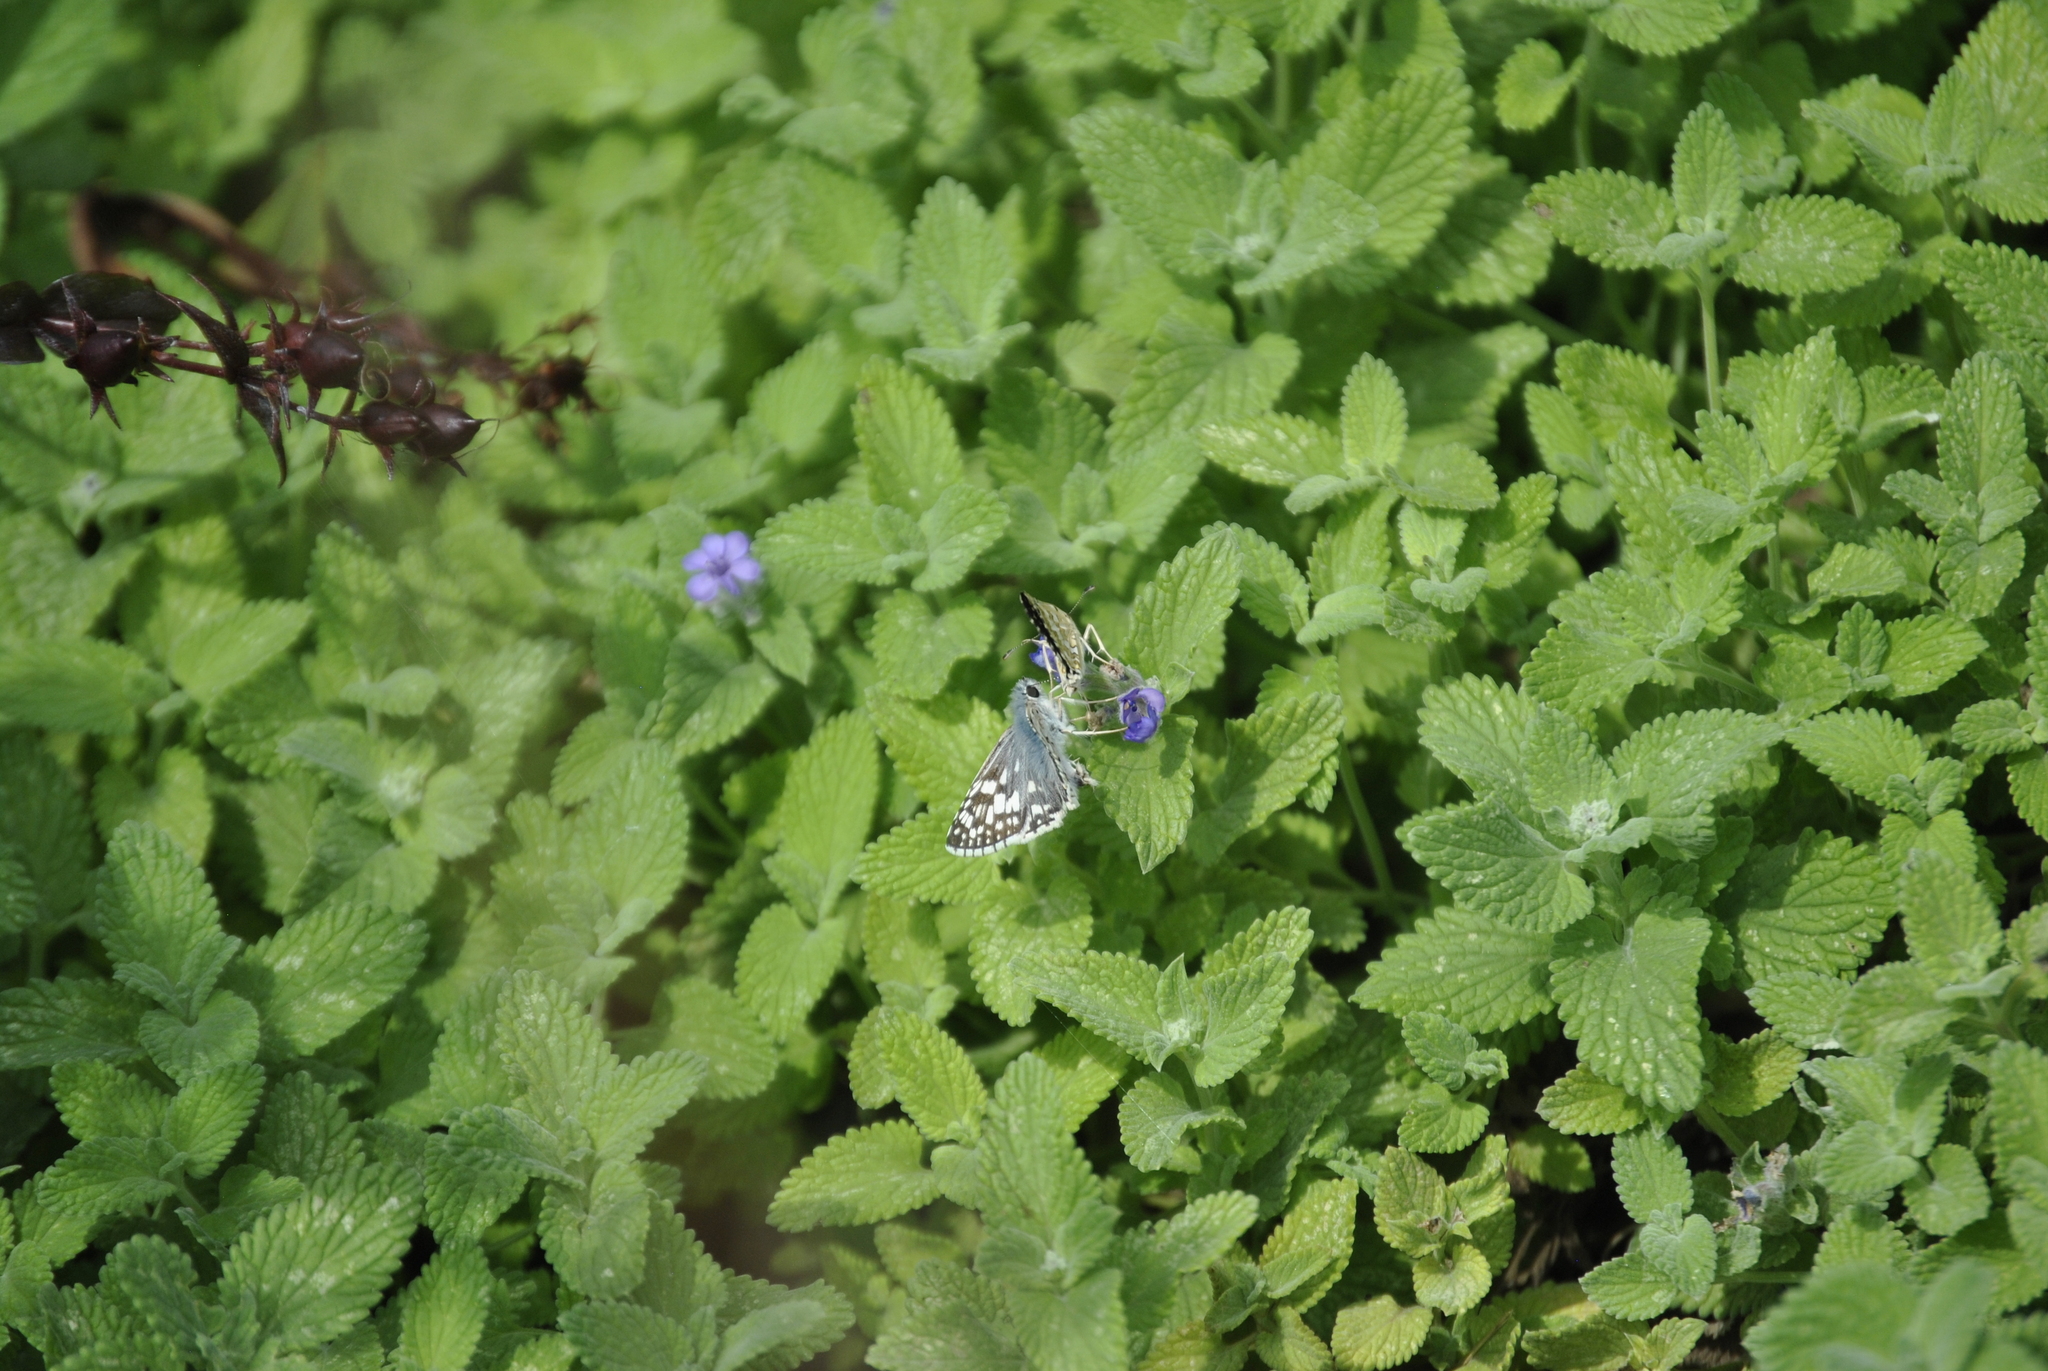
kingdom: Animalia
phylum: Arthropoda
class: Insecta
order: Lepidoptera
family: Hesperiidae
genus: Burnsius
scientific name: Burnsius communis
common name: Common checkered-skipper
